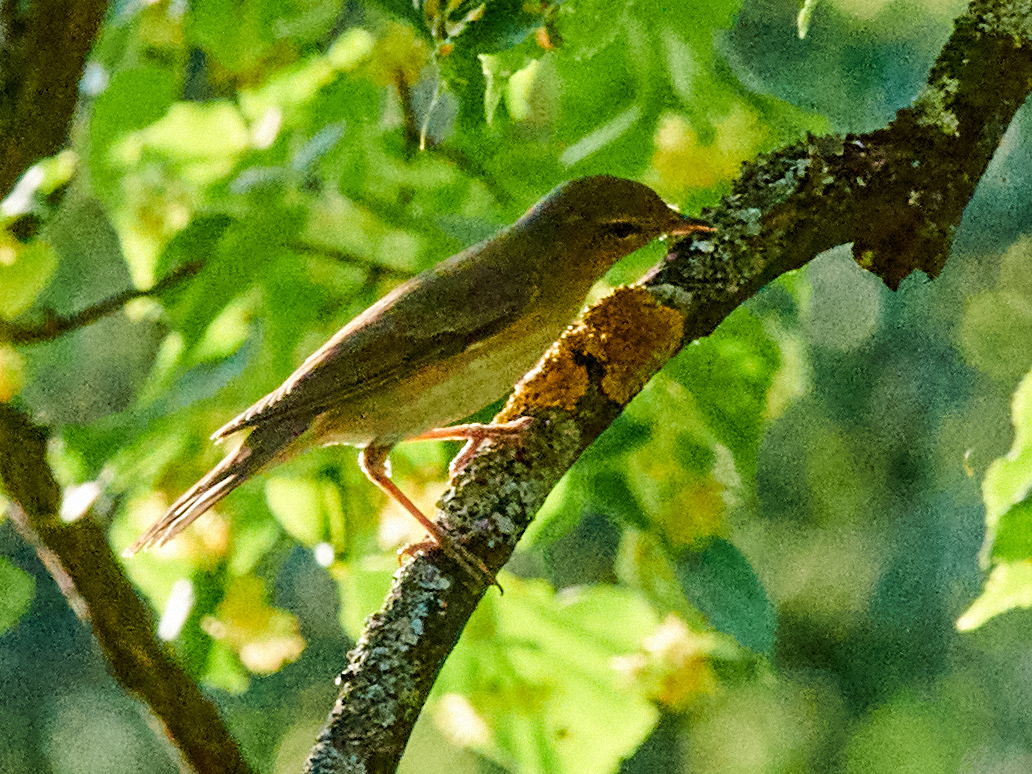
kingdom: Animalia
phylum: Chordata
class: Aves
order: Passeriformes
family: Phylloscopidae
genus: Phylloscopus
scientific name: Phylloscopus trochilus
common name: Willow warbler
